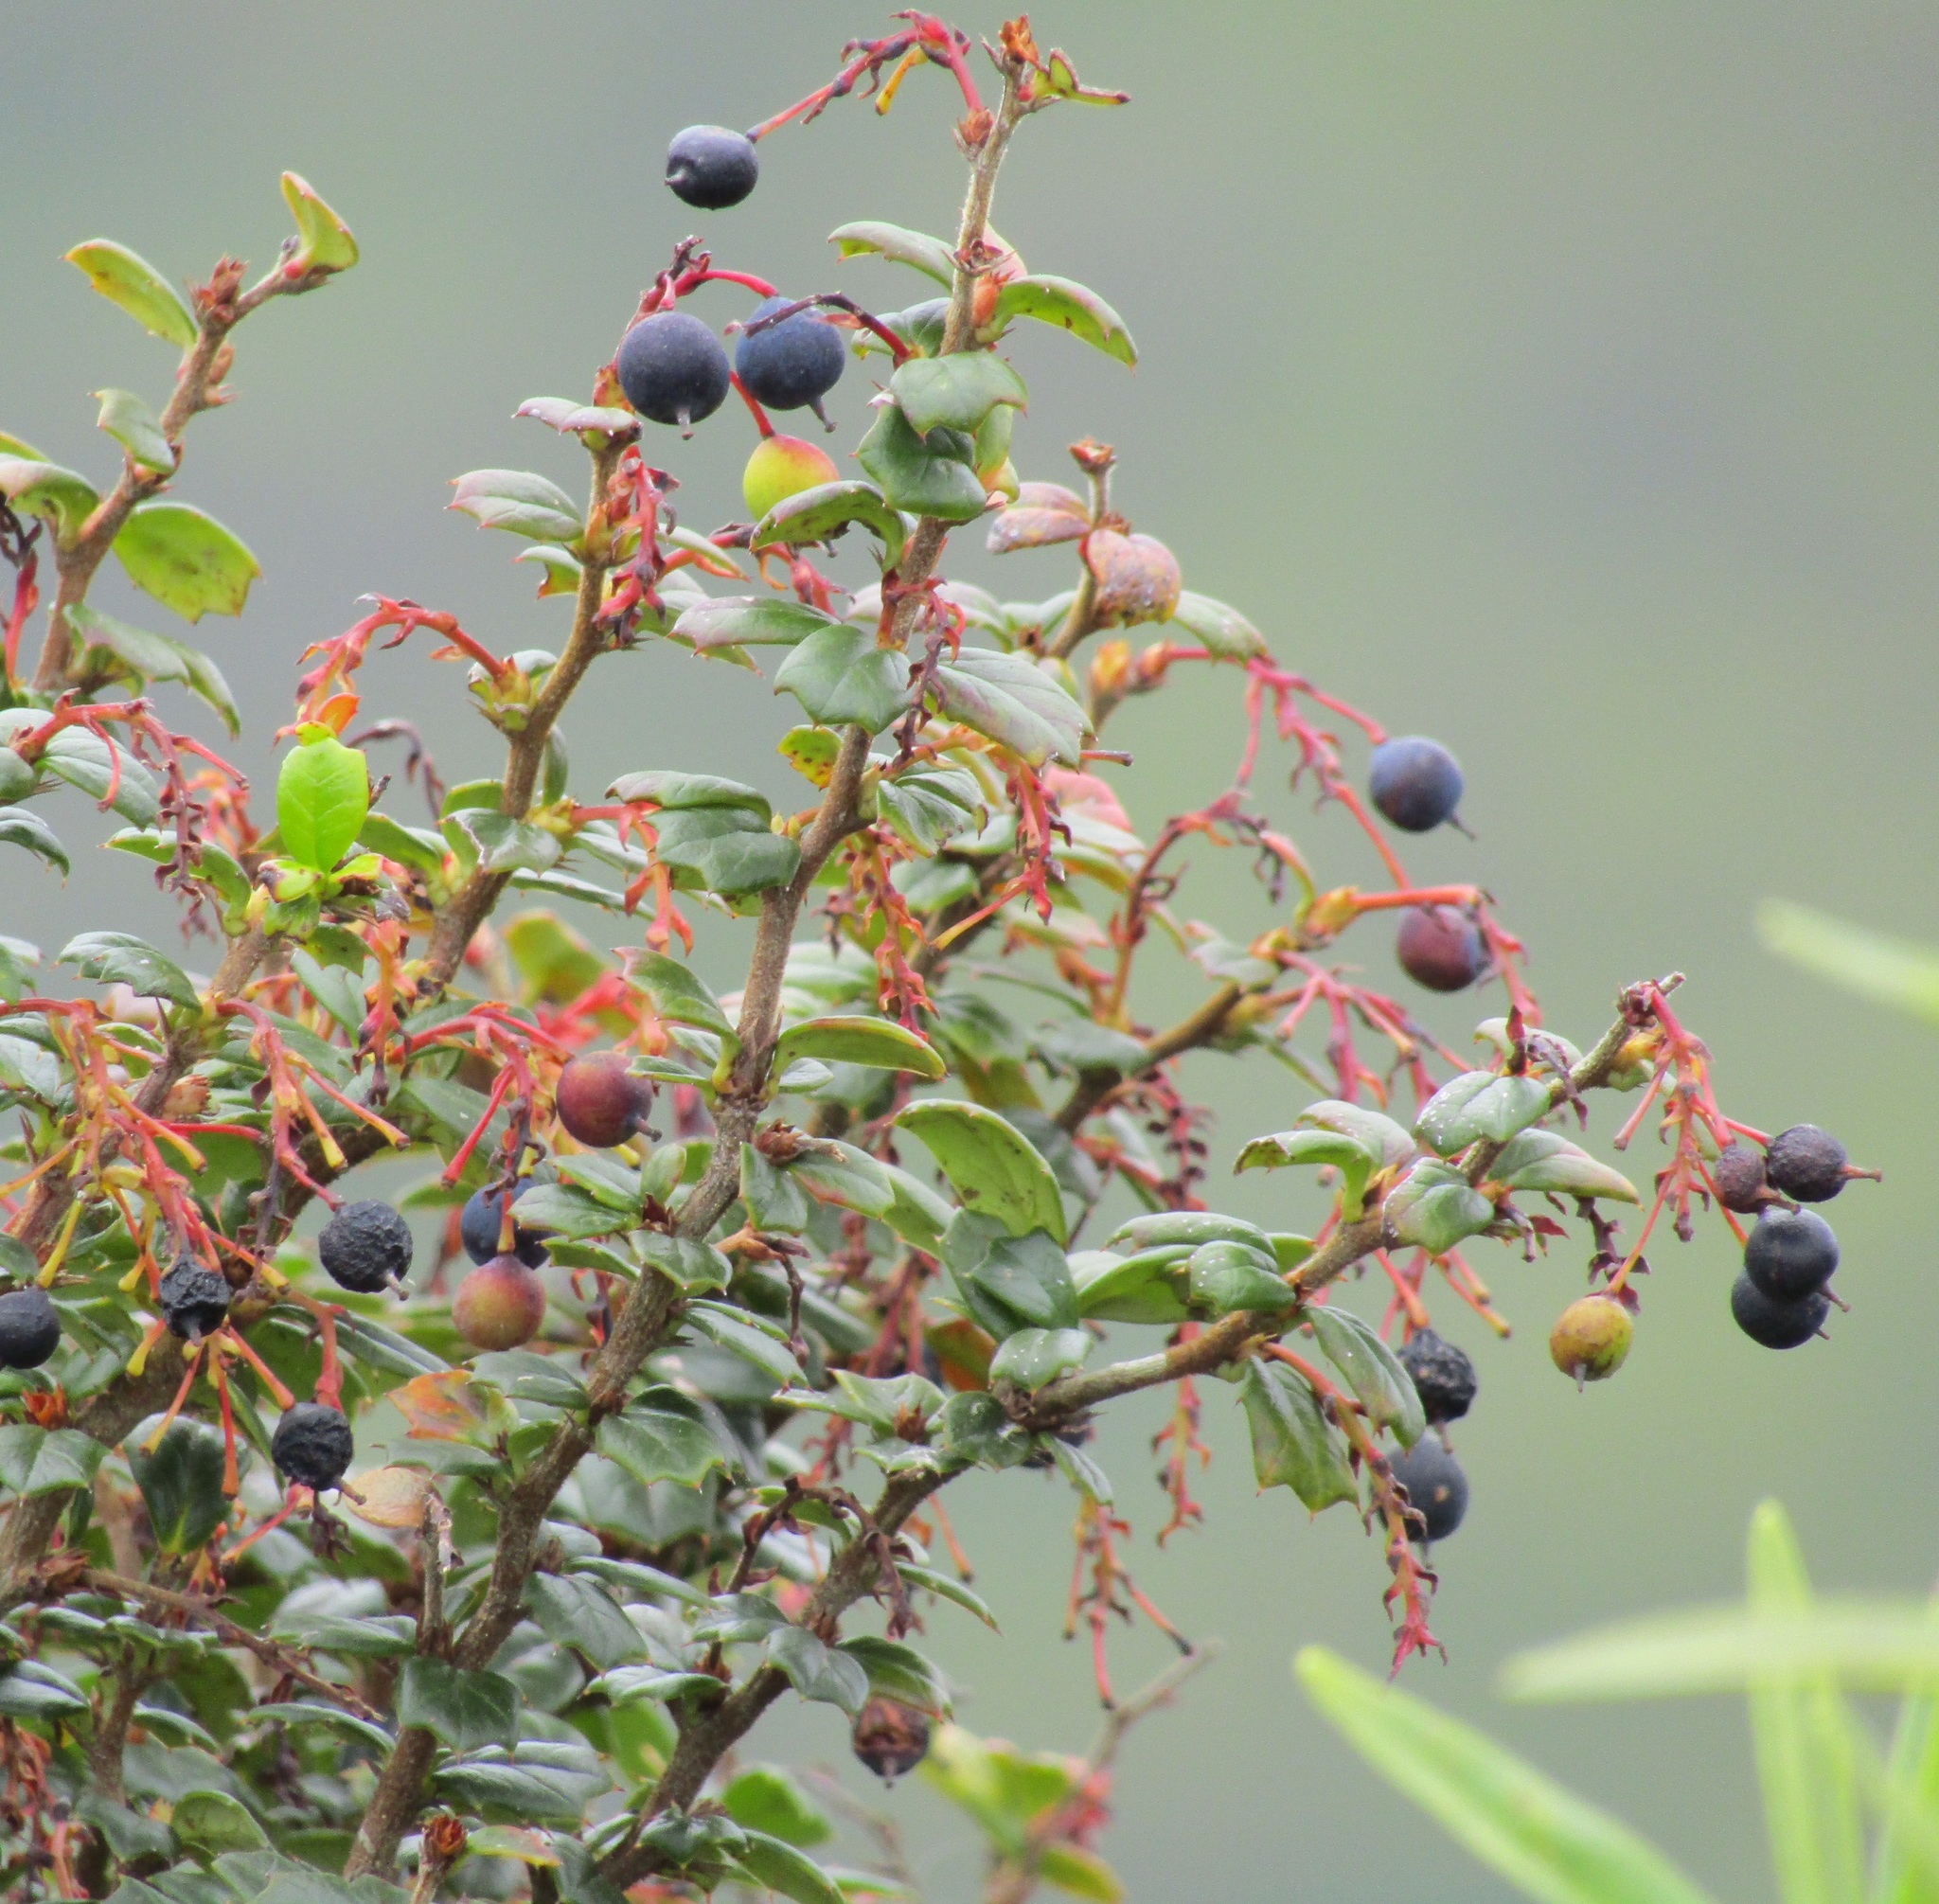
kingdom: Plantae
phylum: Tracheophyta
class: Magnoliopsida
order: Ranunculales
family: Berberidaceae
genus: Berberis
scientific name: Berberis darwinii
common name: Darwin's barberry
